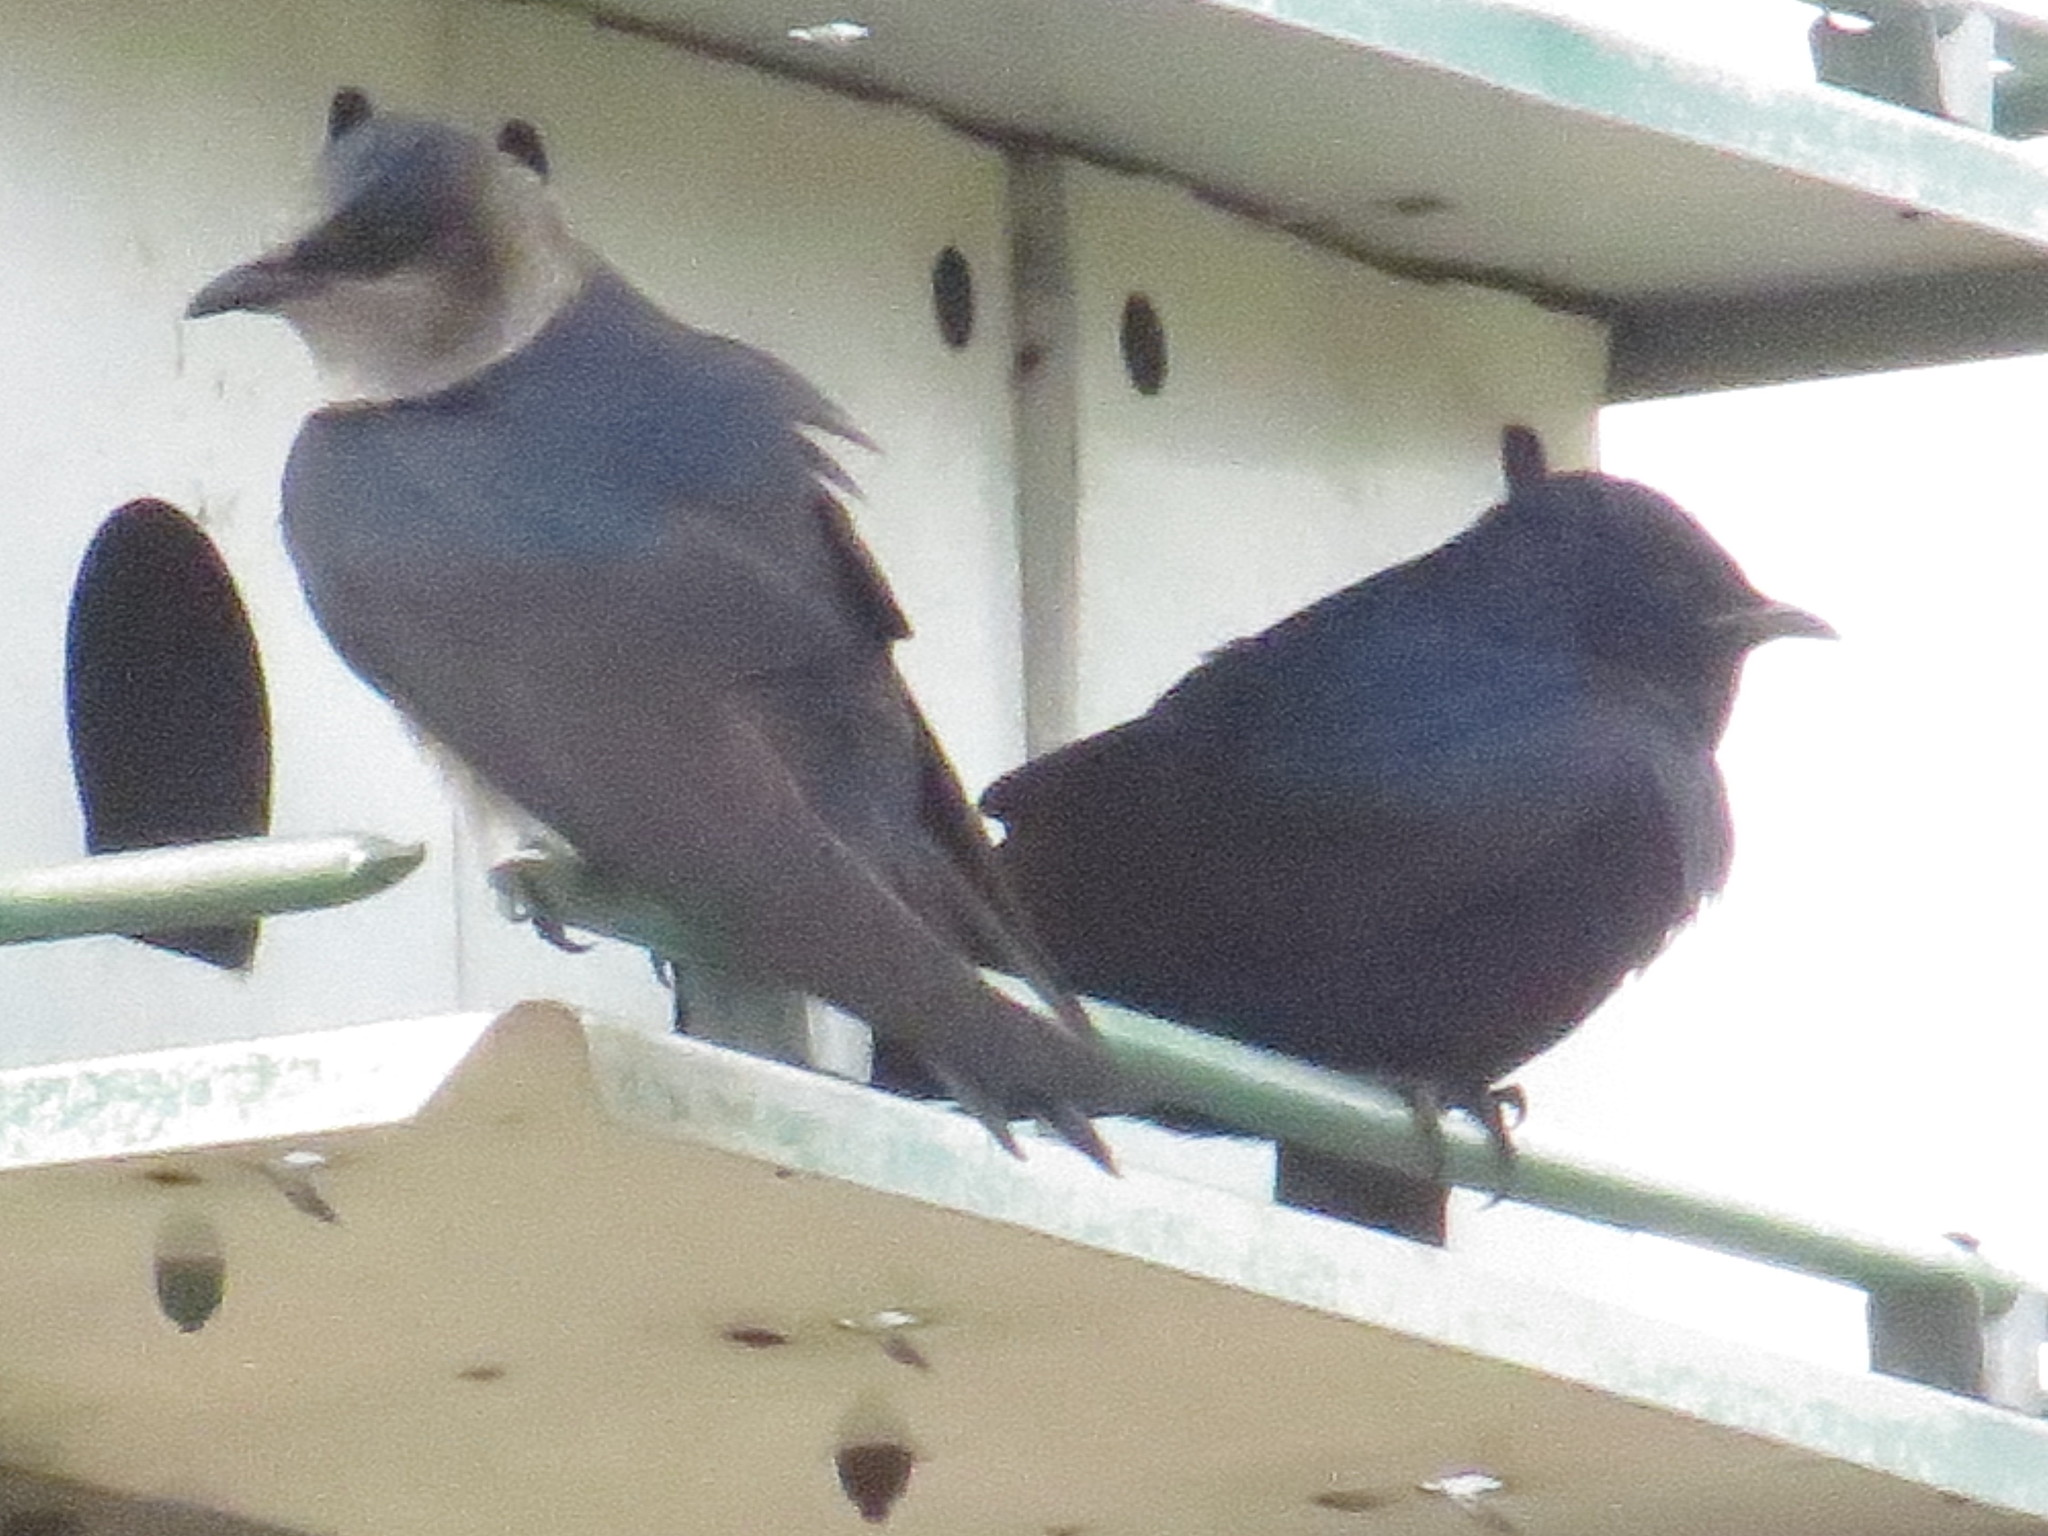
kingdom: Animalia
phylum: Chordata
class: Aves
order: Passeriformes
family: Hirundinidae
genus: Progne
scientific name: Progne subis
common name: Purple martin
